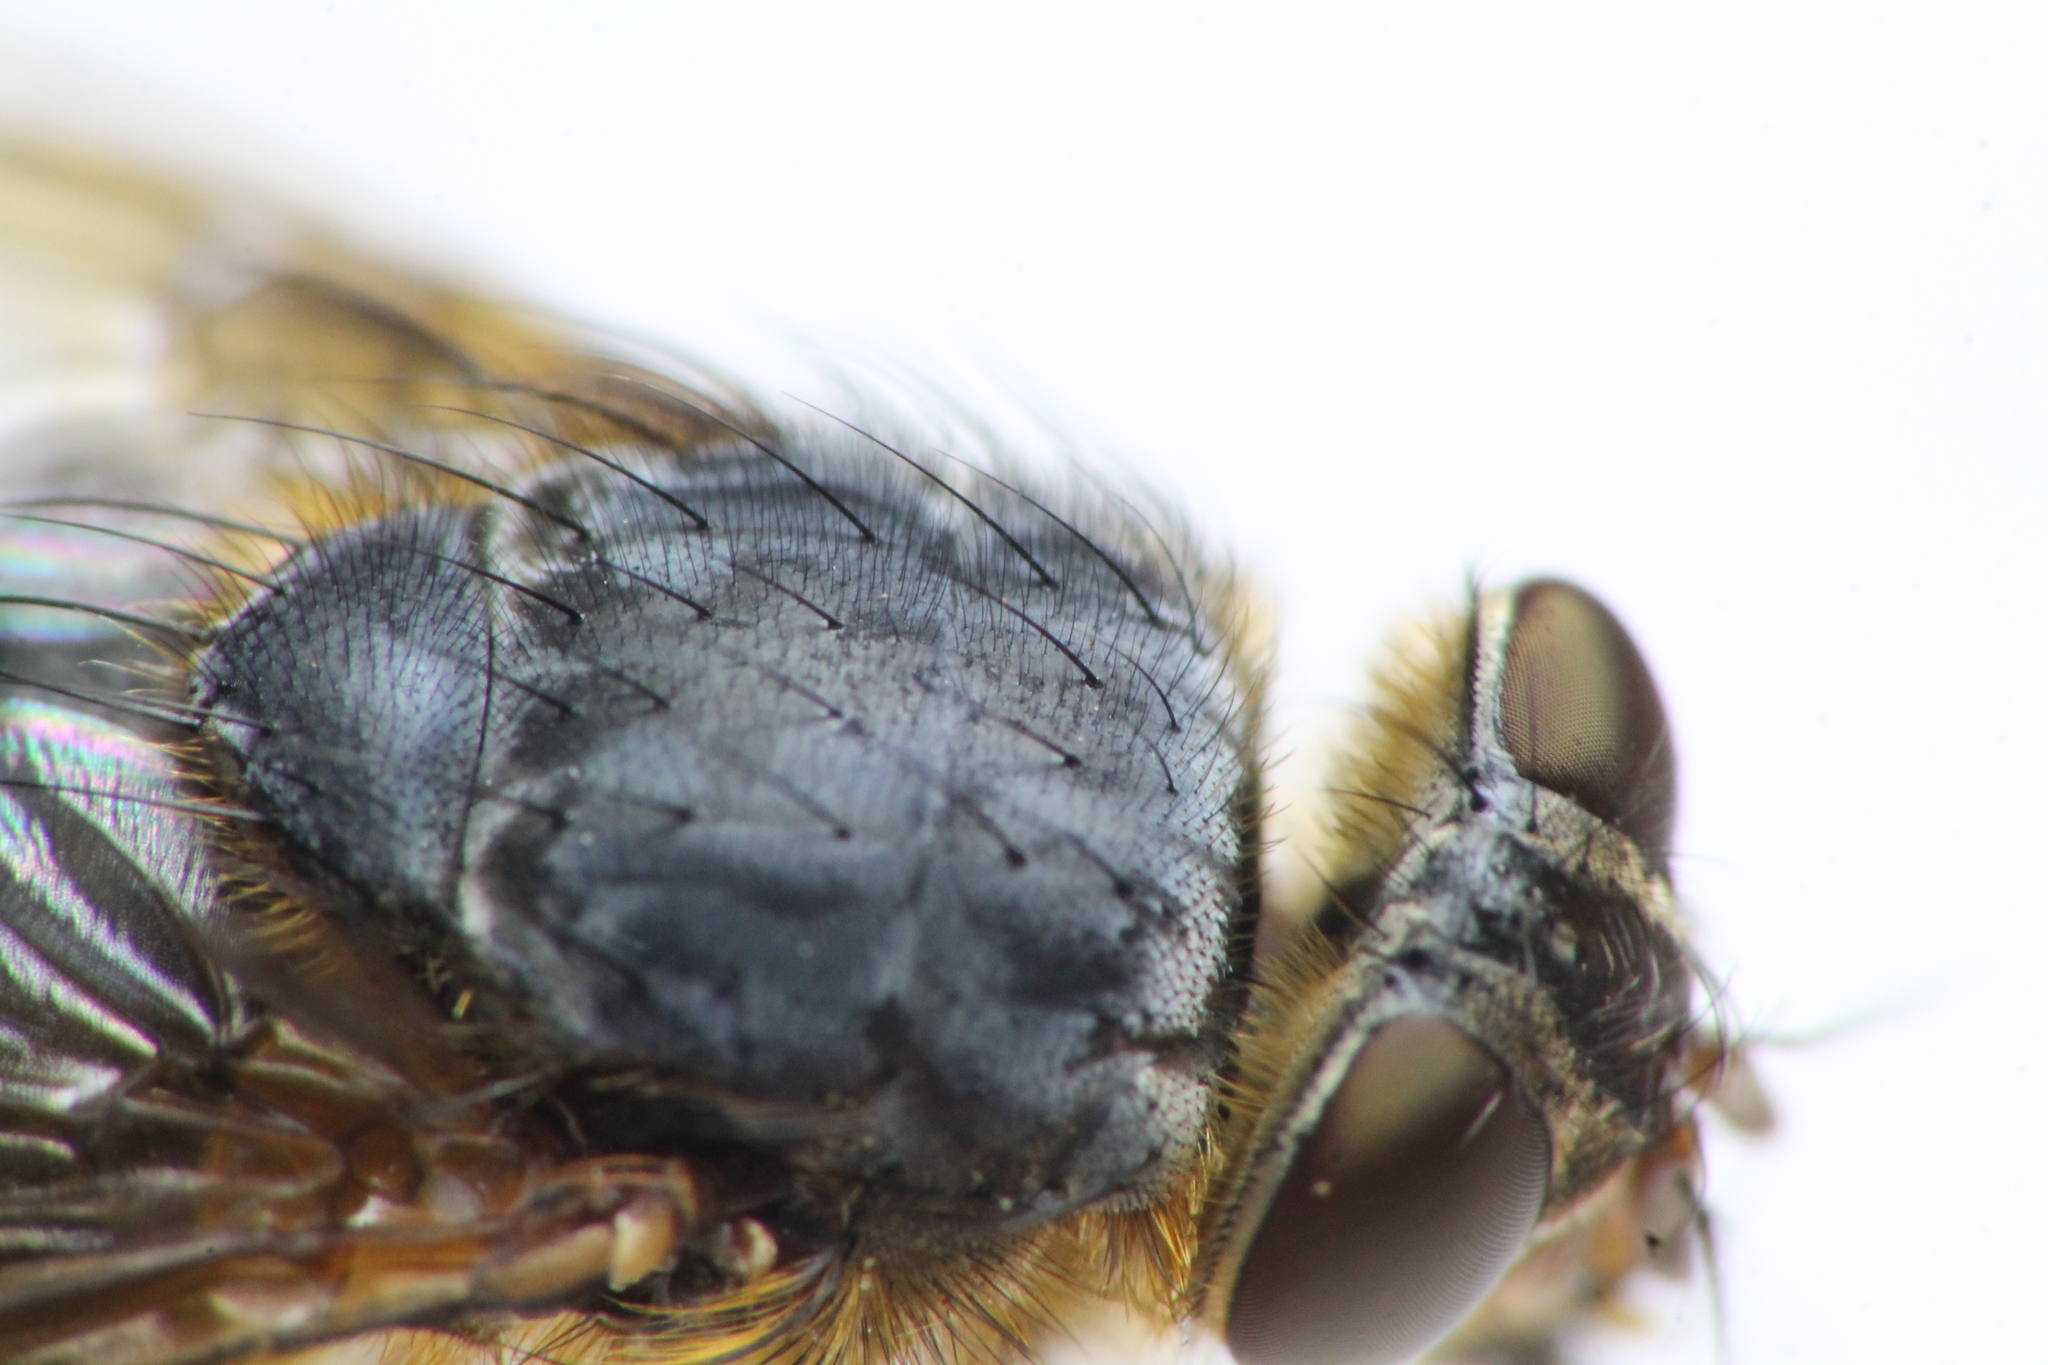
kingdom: Animalia
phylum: Arthropoda
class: Insecta
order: Diptera
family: Calliphoridae
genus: Calliphora
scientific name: Calliphora hilli
